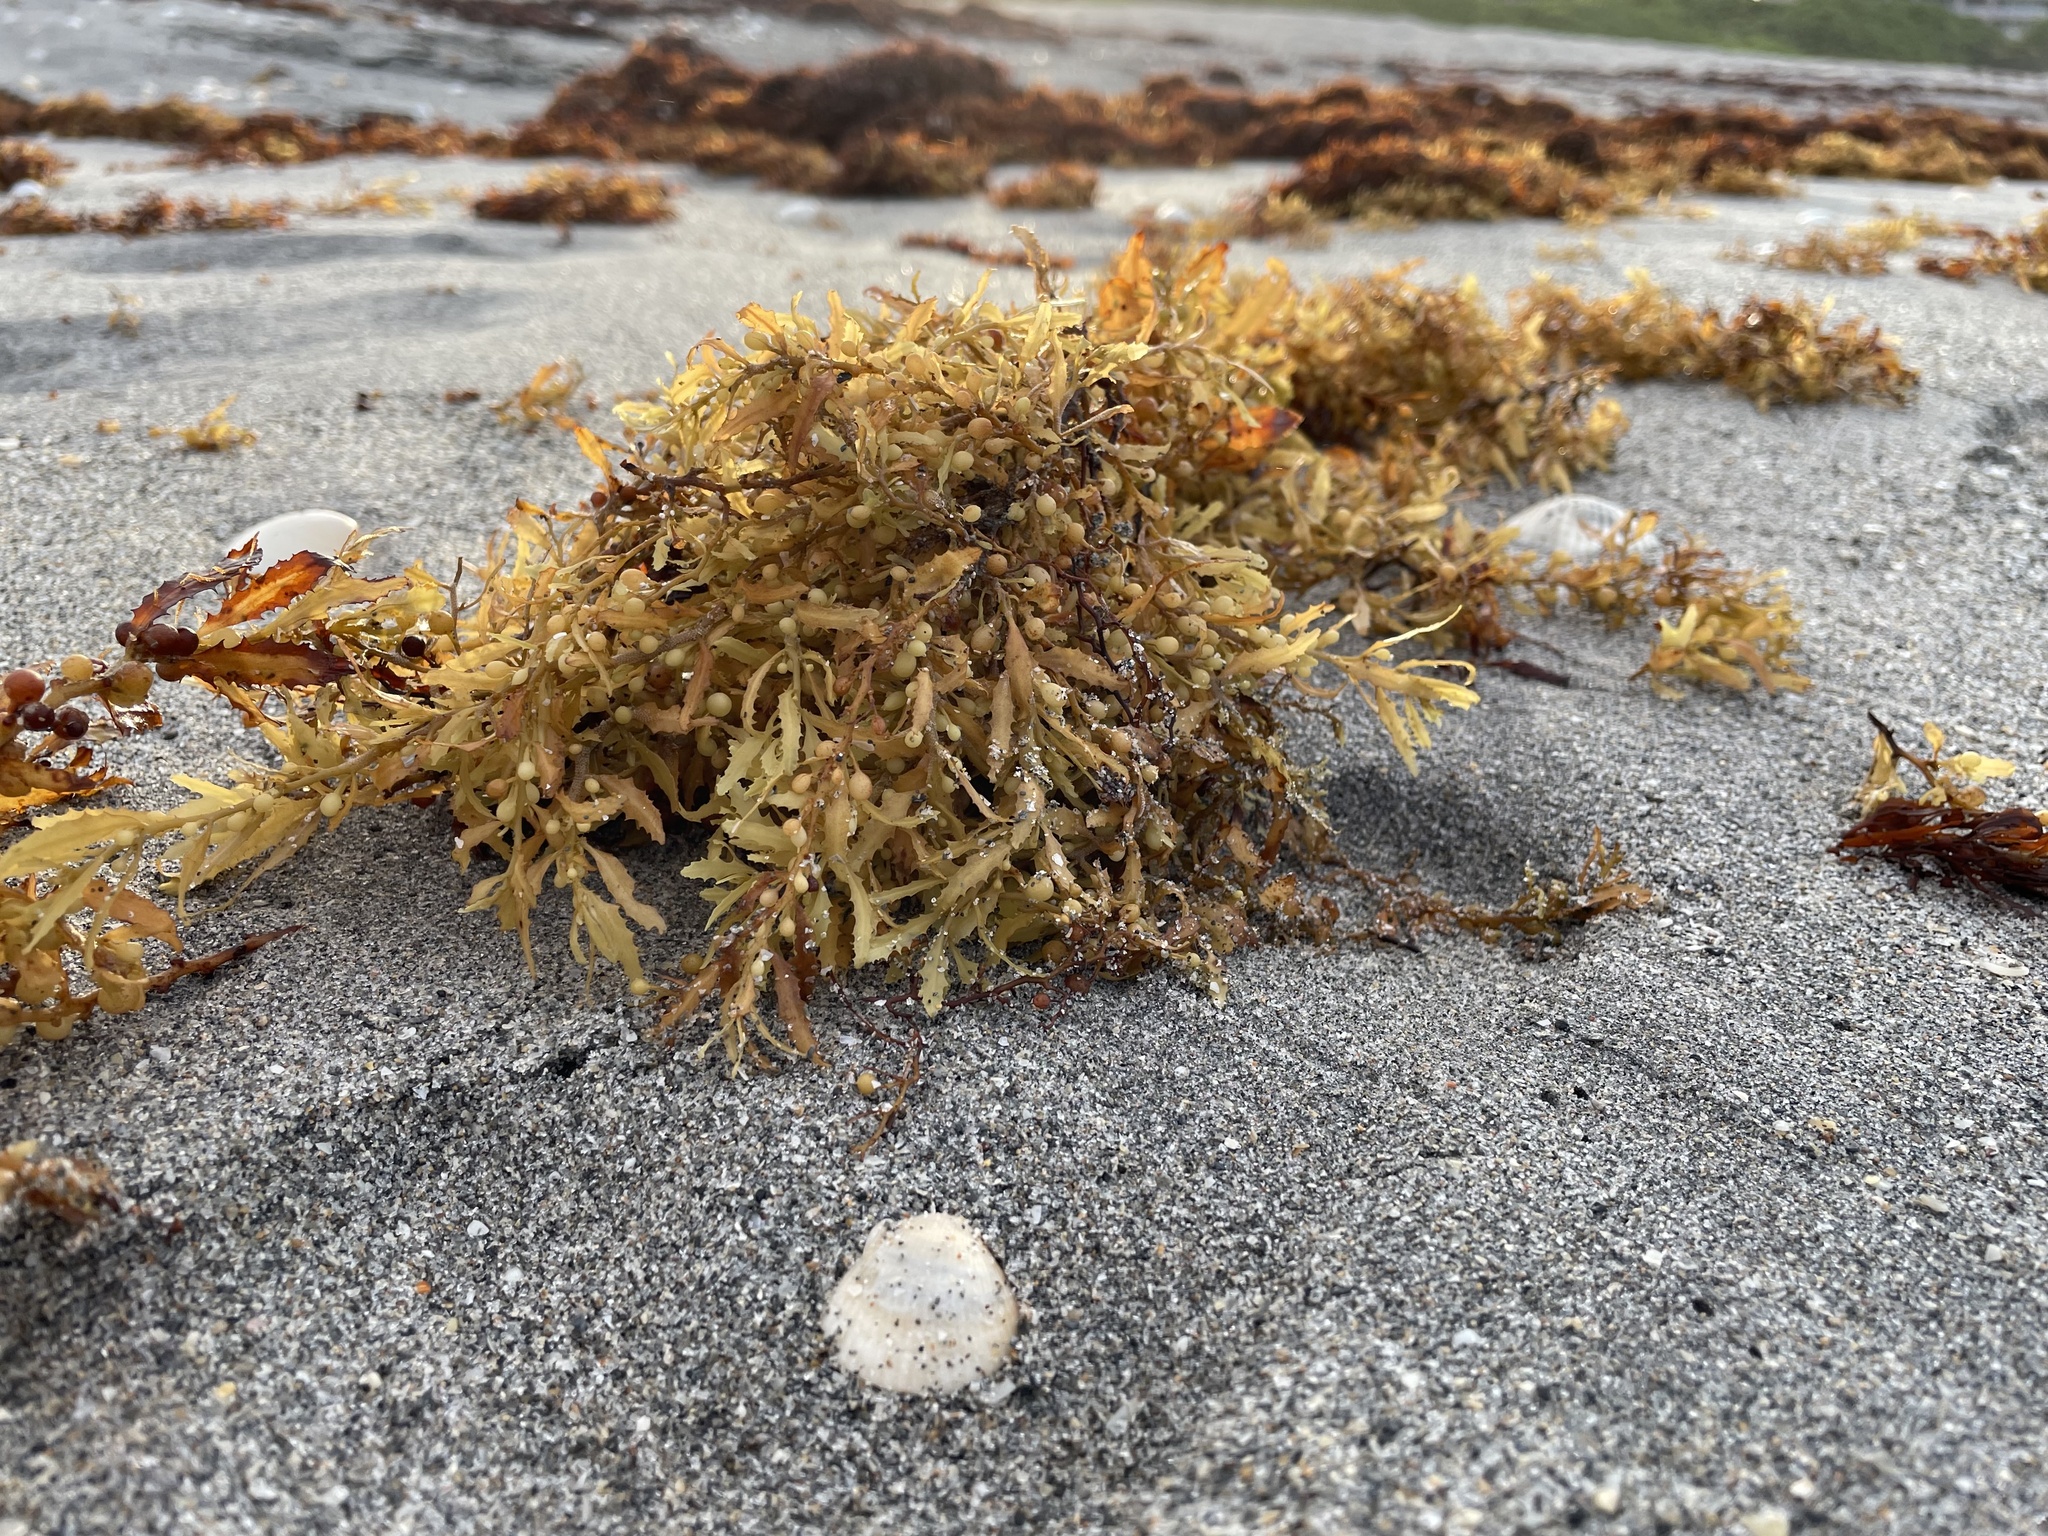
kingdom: Chromista
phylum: Ochrophyta
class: Phaeophyceae
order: Fucales
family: Sargassaceae
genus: Sargassum
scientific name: Sargassum fluitans
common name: Sargassum seaweed
